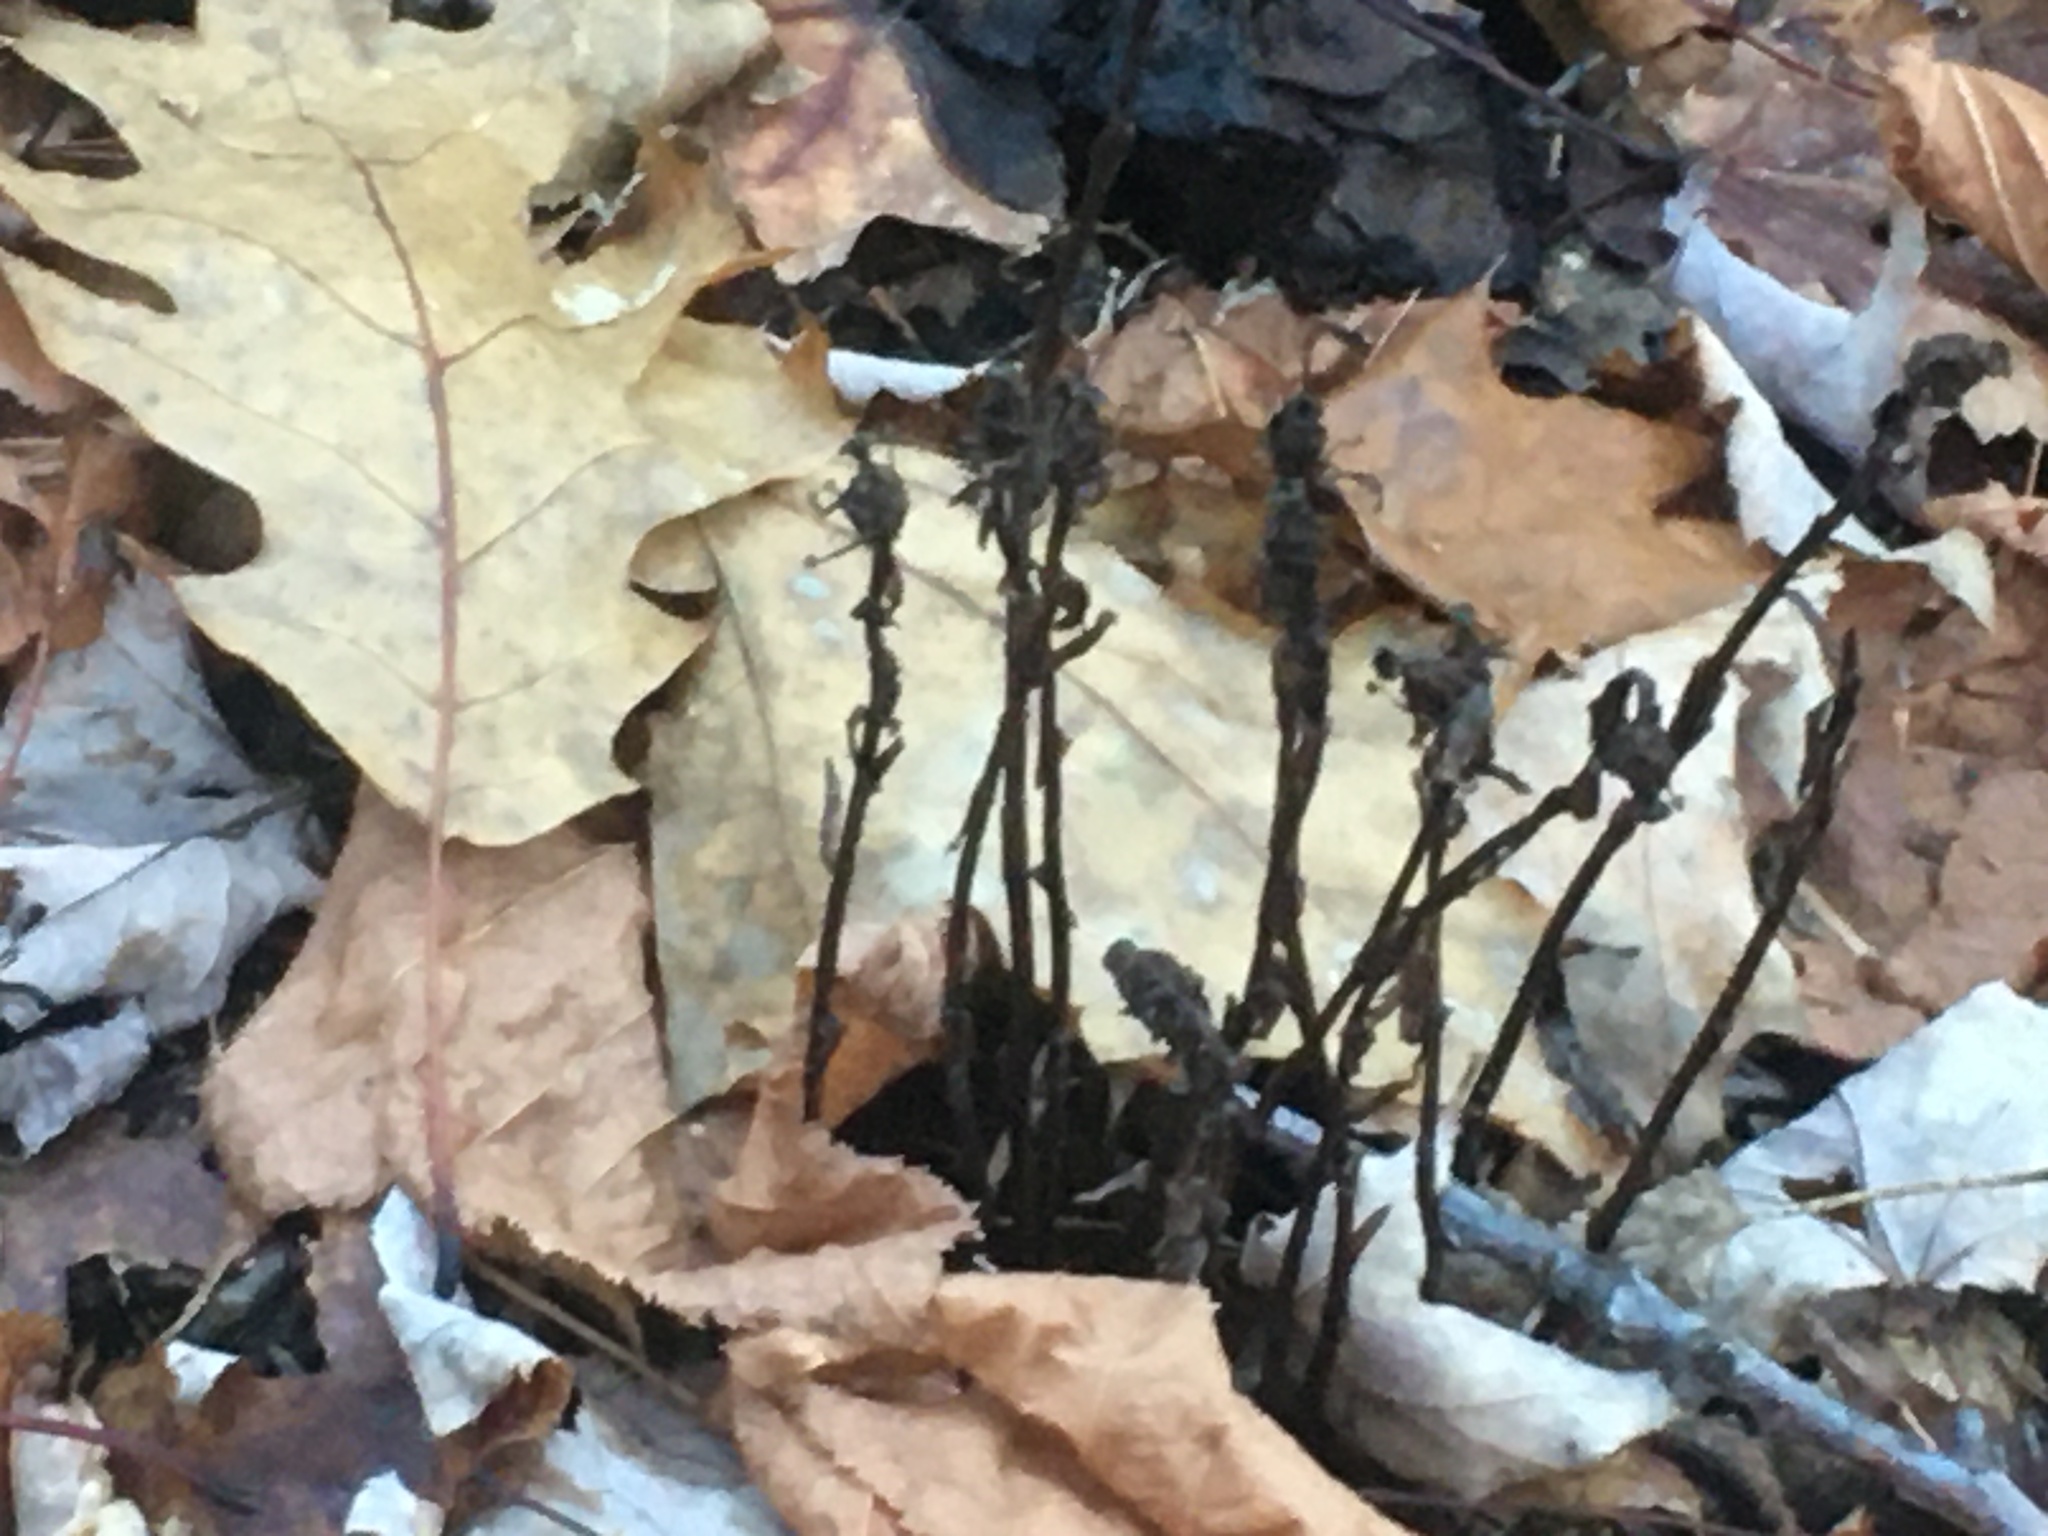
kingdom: Plantae
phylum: Tracheophyta
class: Magnoliopsida
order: Ericales
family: Ericaceae
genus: Monotropa
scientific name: Monotropa uniflora
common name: Convulsion root
